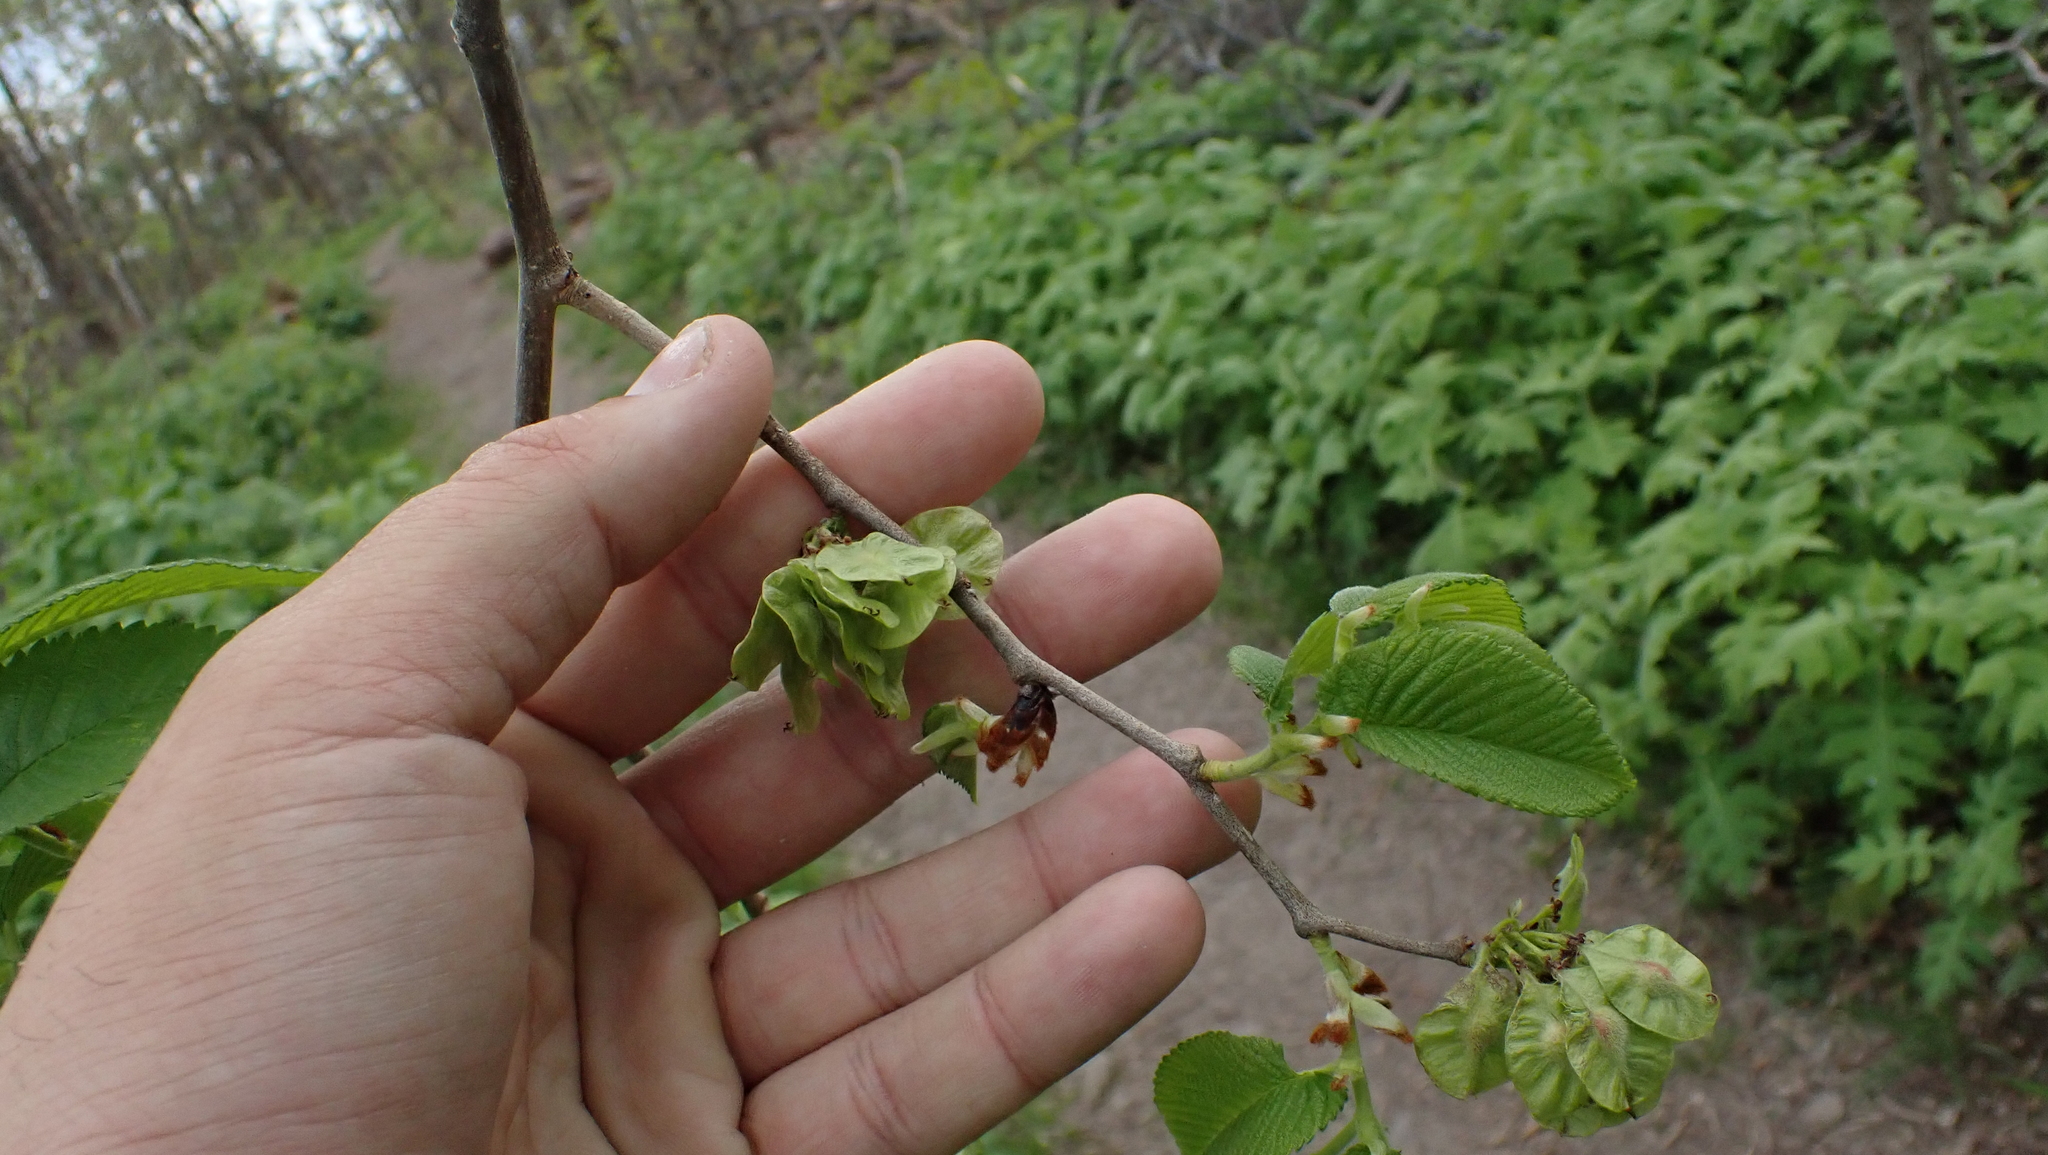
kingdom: Plantae
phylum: Tracheophyta
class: Magnoliopsida
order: Rosales
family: Ulmaceae
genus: Ulmus
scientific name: Ulmus rubra
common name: Slippery elm
